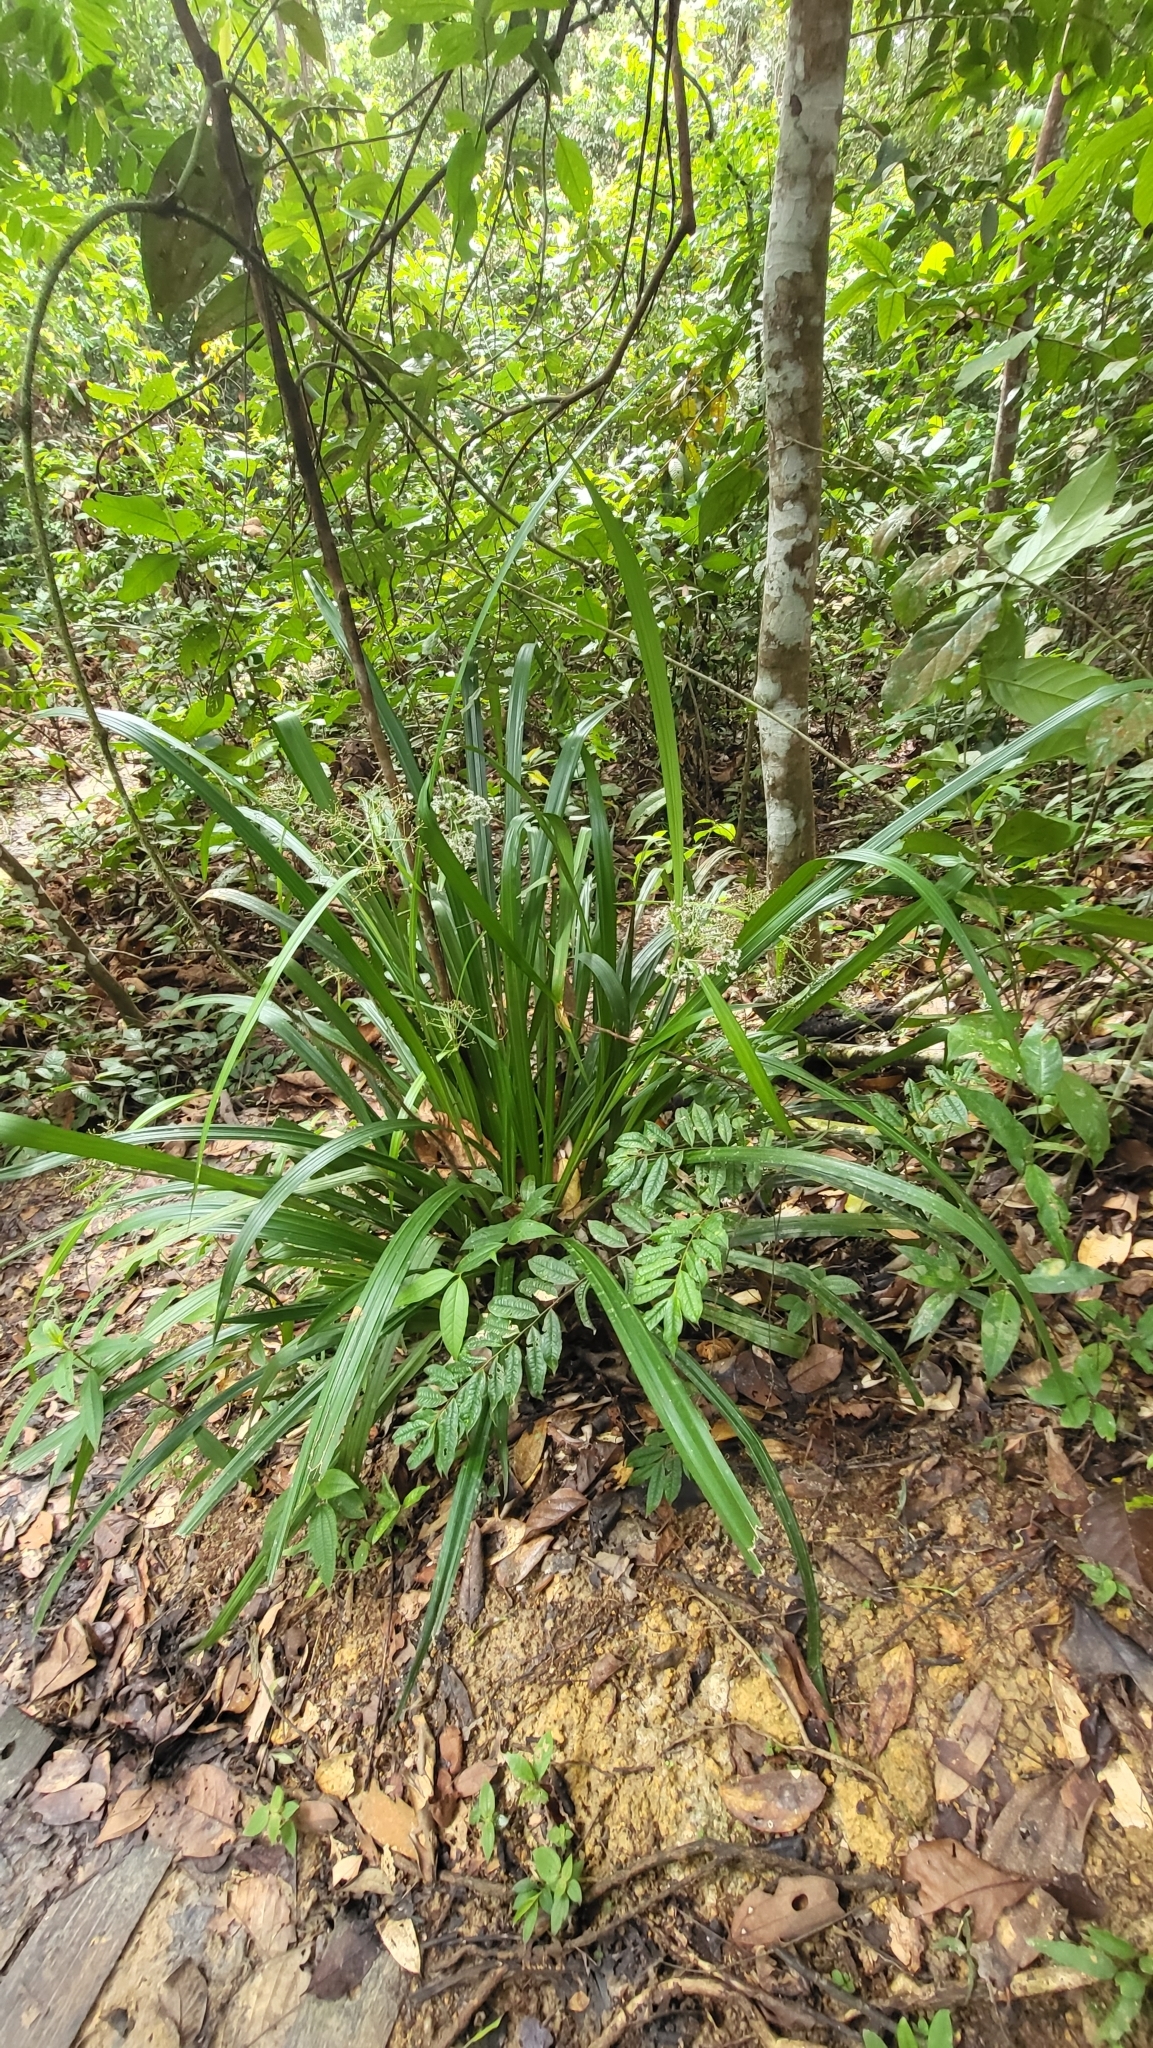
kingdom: Plantae
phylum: Tracheophyta
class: Liliopsida
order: Poales
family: Cyperaceae
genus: Hypolytrum
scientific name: Hypolytrum nemorum
